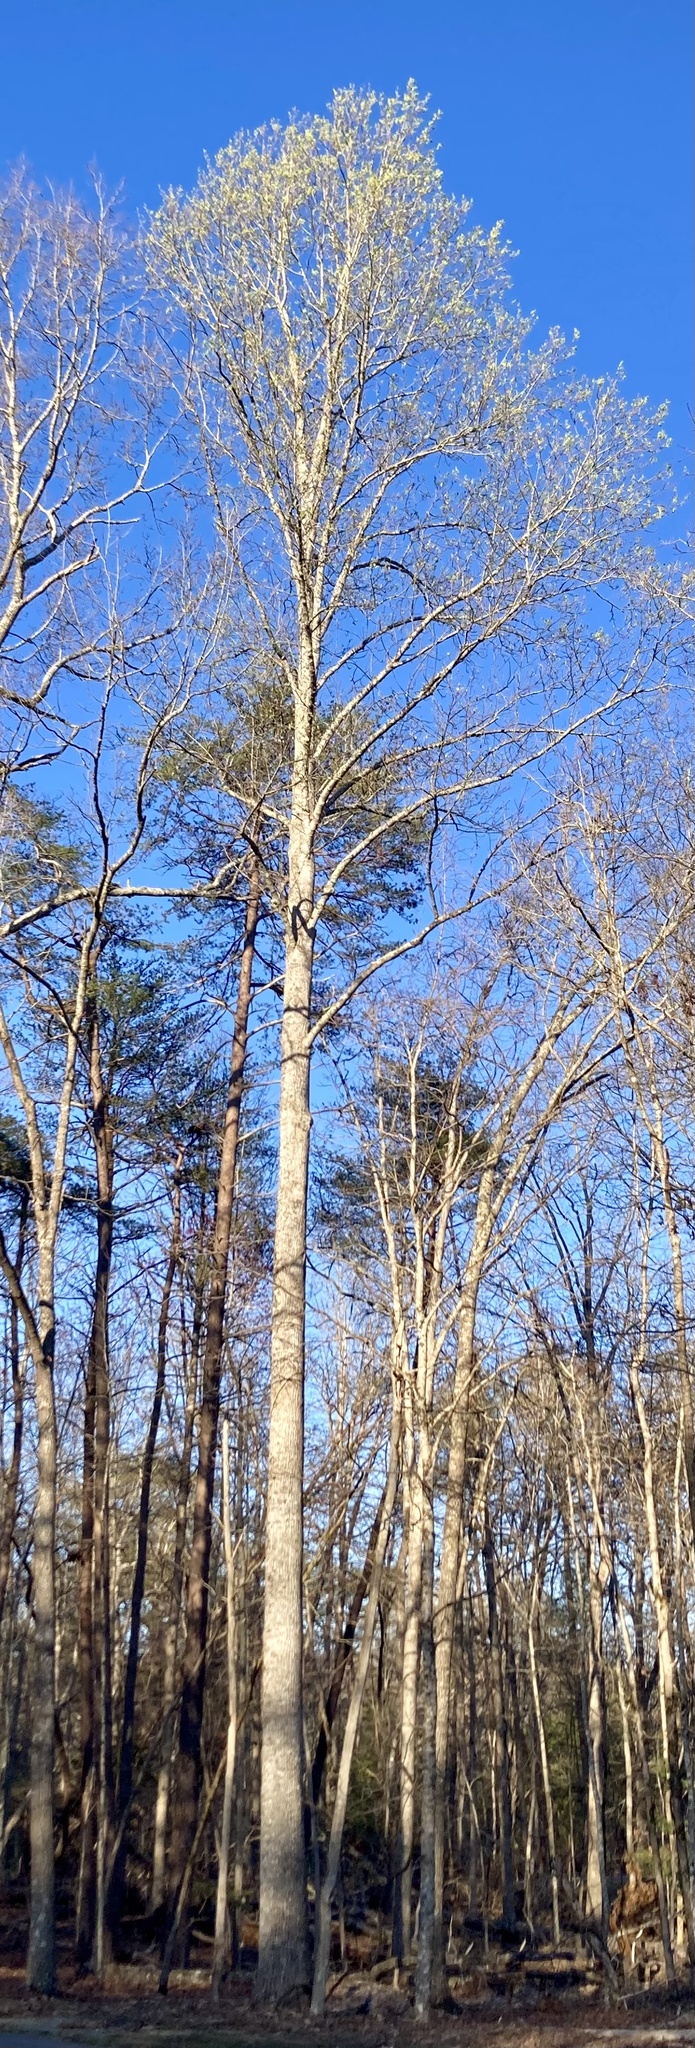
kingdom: Plantae
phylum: Tracheophyta
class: Magnoliopsida
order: Magnoliales
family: Magnoliaceae
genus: Liriodendron
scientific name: Liriodendron tulipifera
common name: Tulip tree
